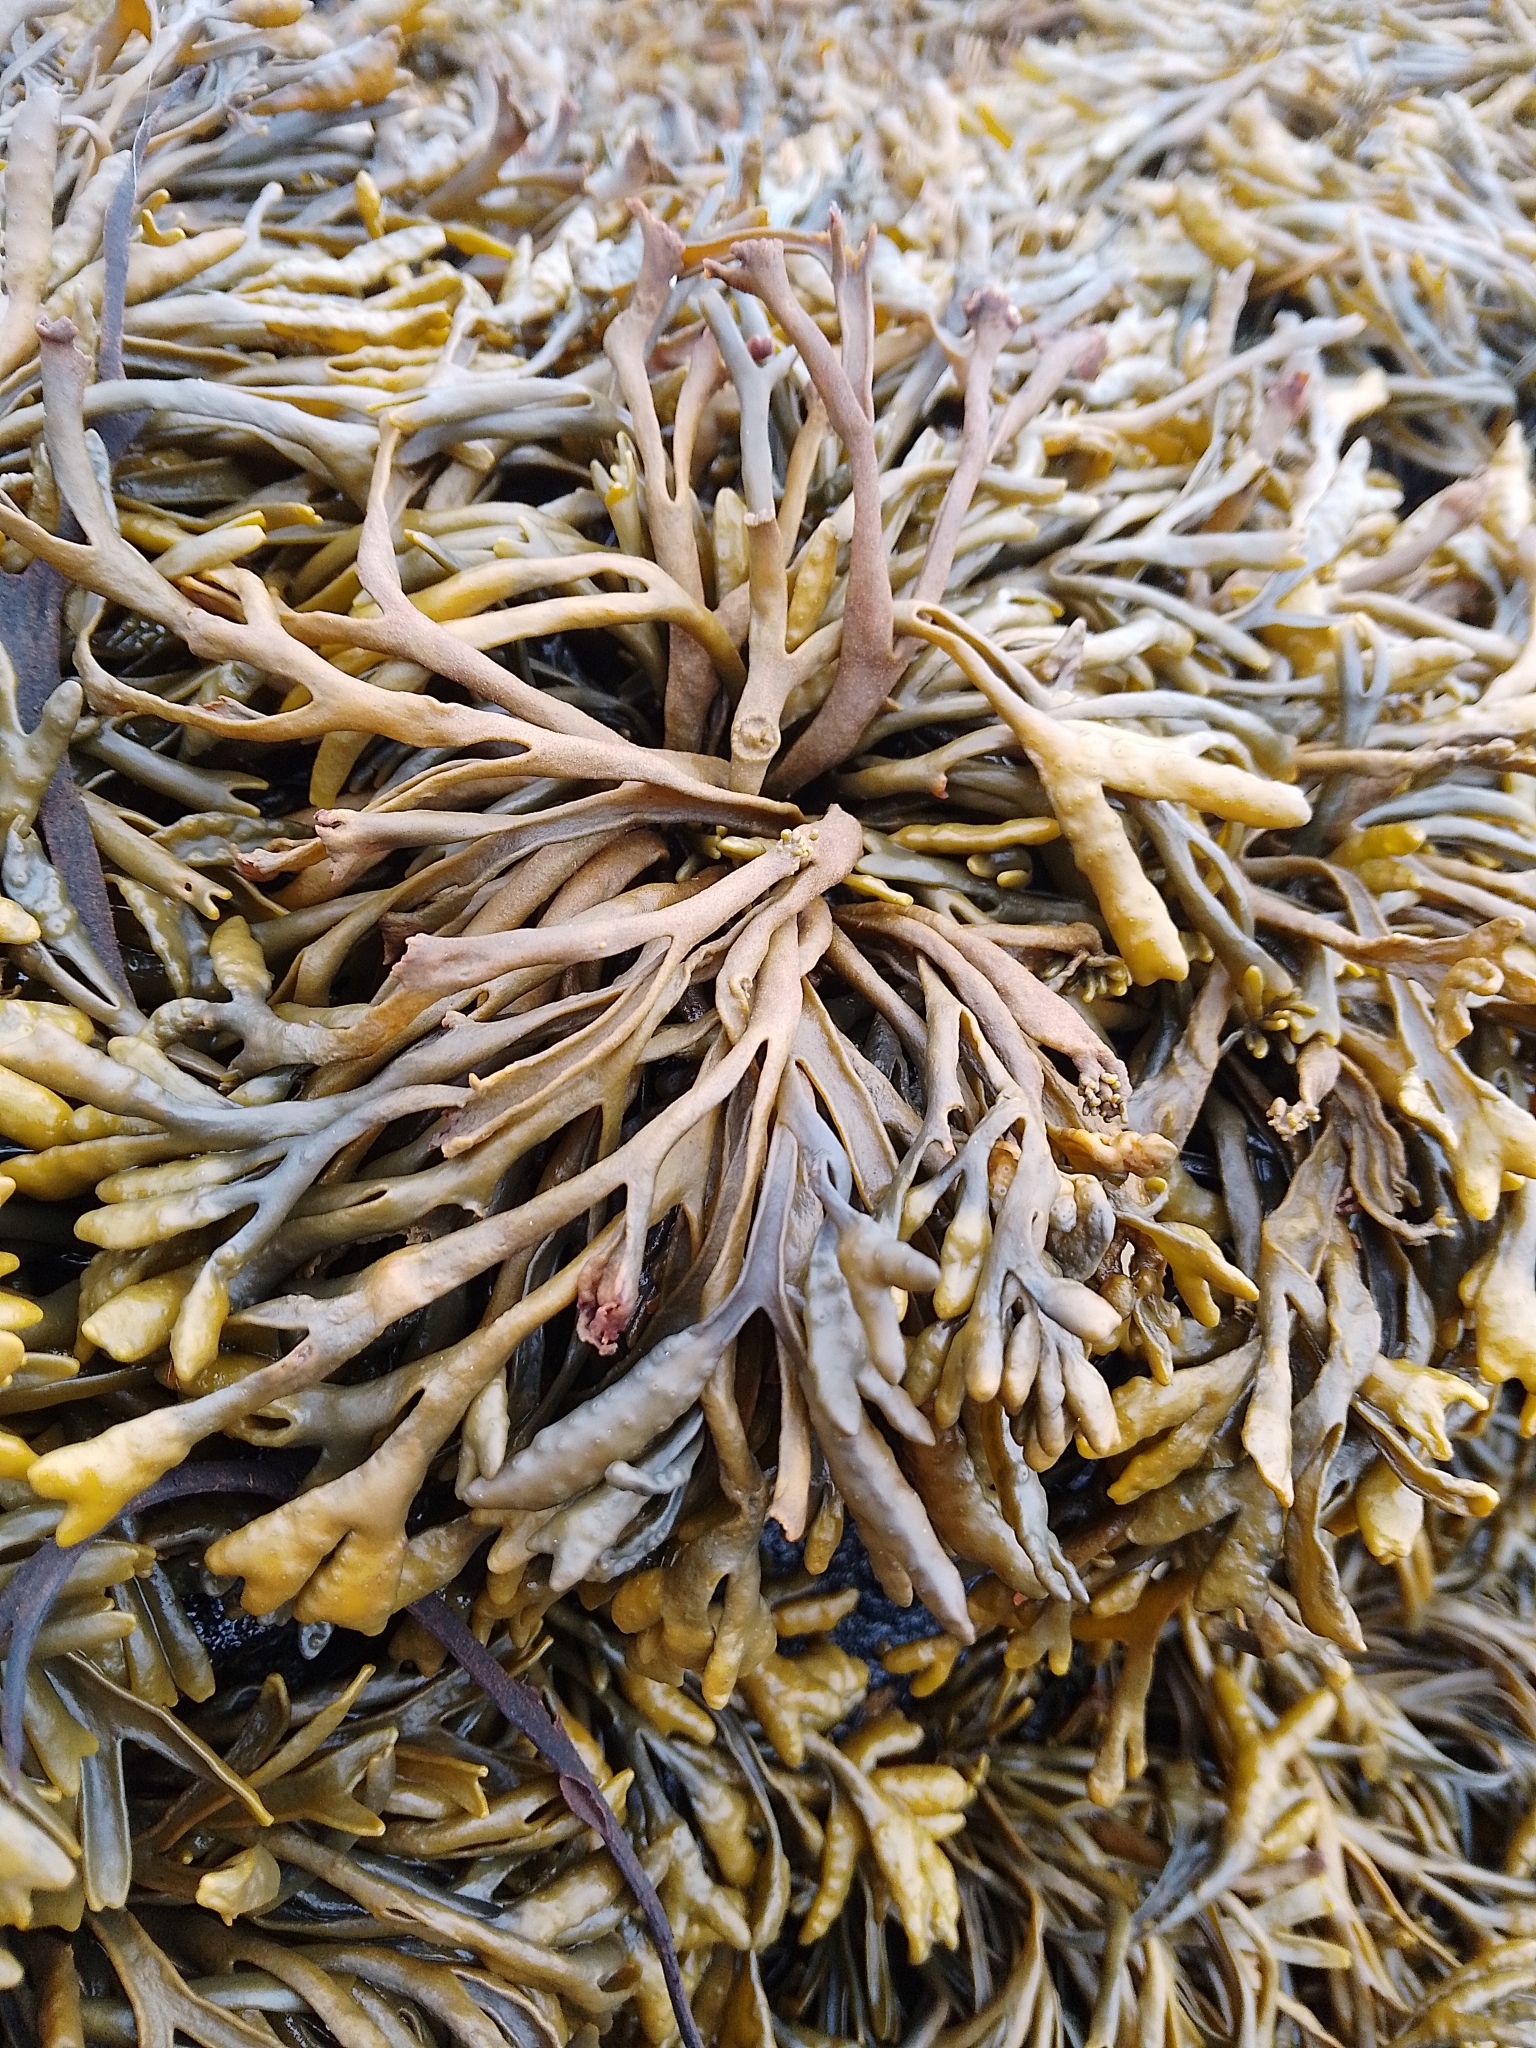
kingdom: Chromista
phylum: Ochrophyta
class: Phaeophyceae
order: Fucales
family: Fucaceae
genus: Pelvetia
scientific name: Pelvetia canaliculata
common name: Channelled wrack
